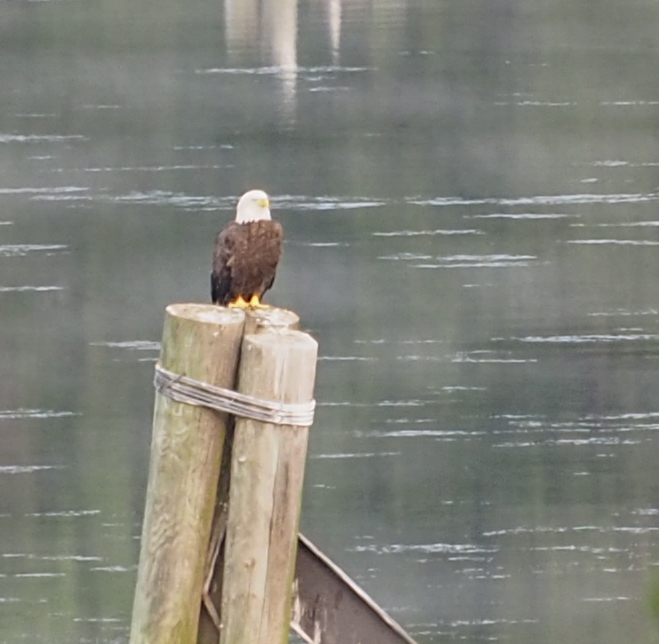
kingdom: Animalia
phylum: Chordata
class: Aves
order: Accipitriformes
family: Accipitridae
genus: Haliaeetus
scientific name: Haliaeetus leucocephalus
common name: Bald eagle
